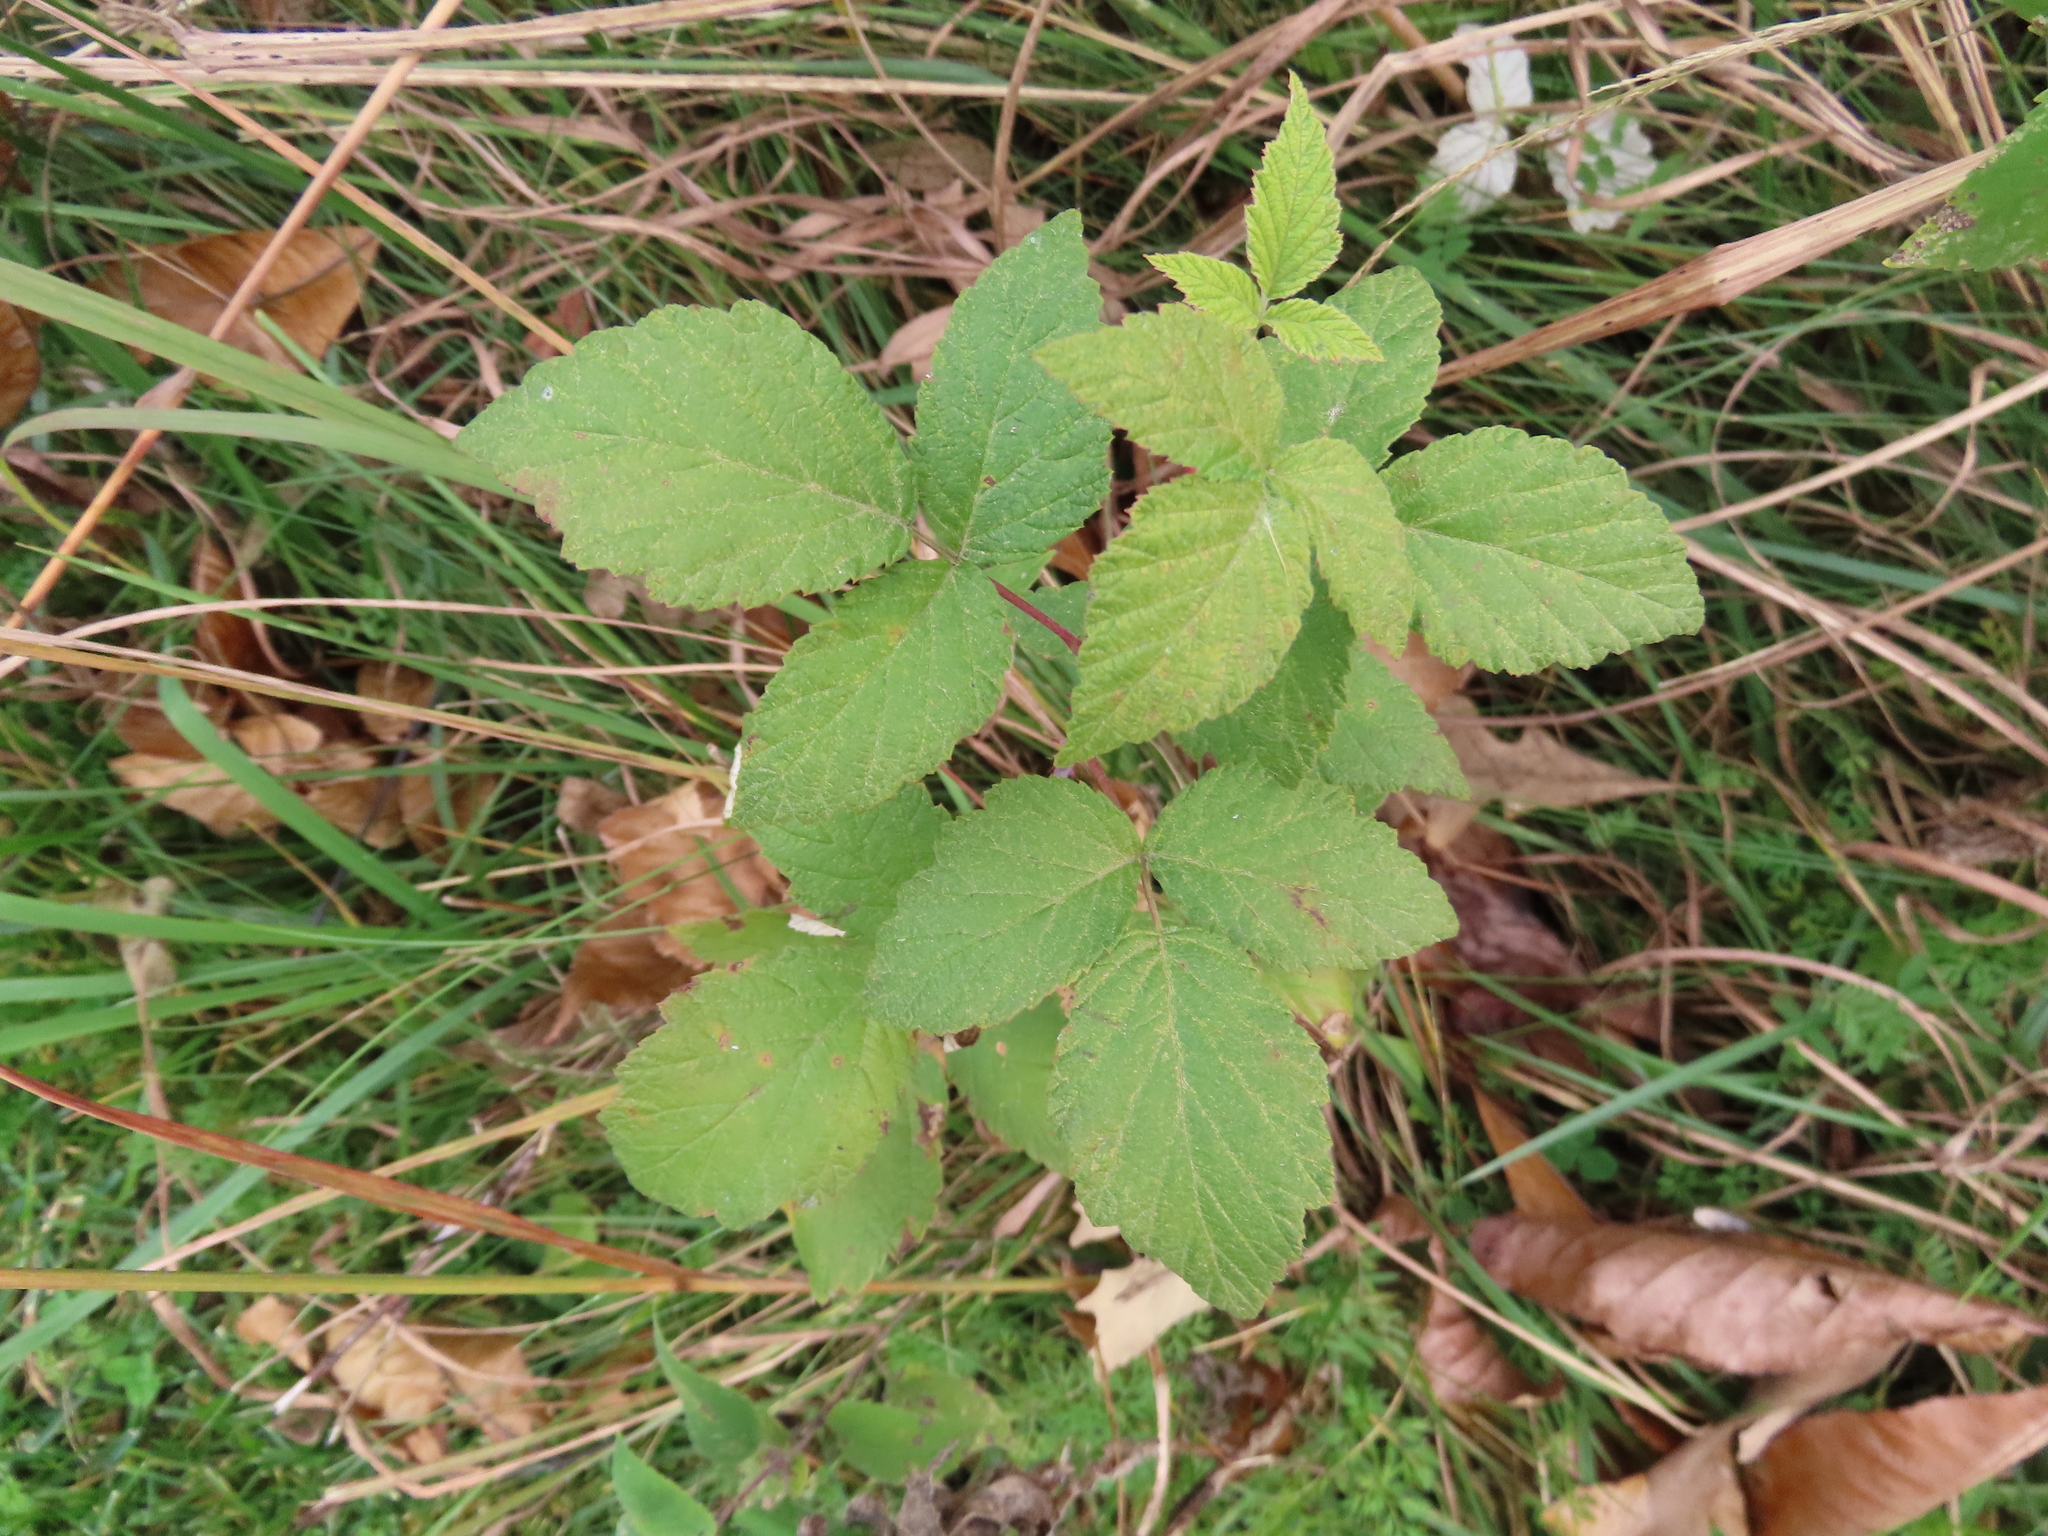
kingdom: Plantae
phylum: Tracheophyta
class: Magnoliopsida
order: Rosales
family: Rosaceae
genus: Rubus
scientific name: Rubus idaeus
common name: Raspberry
